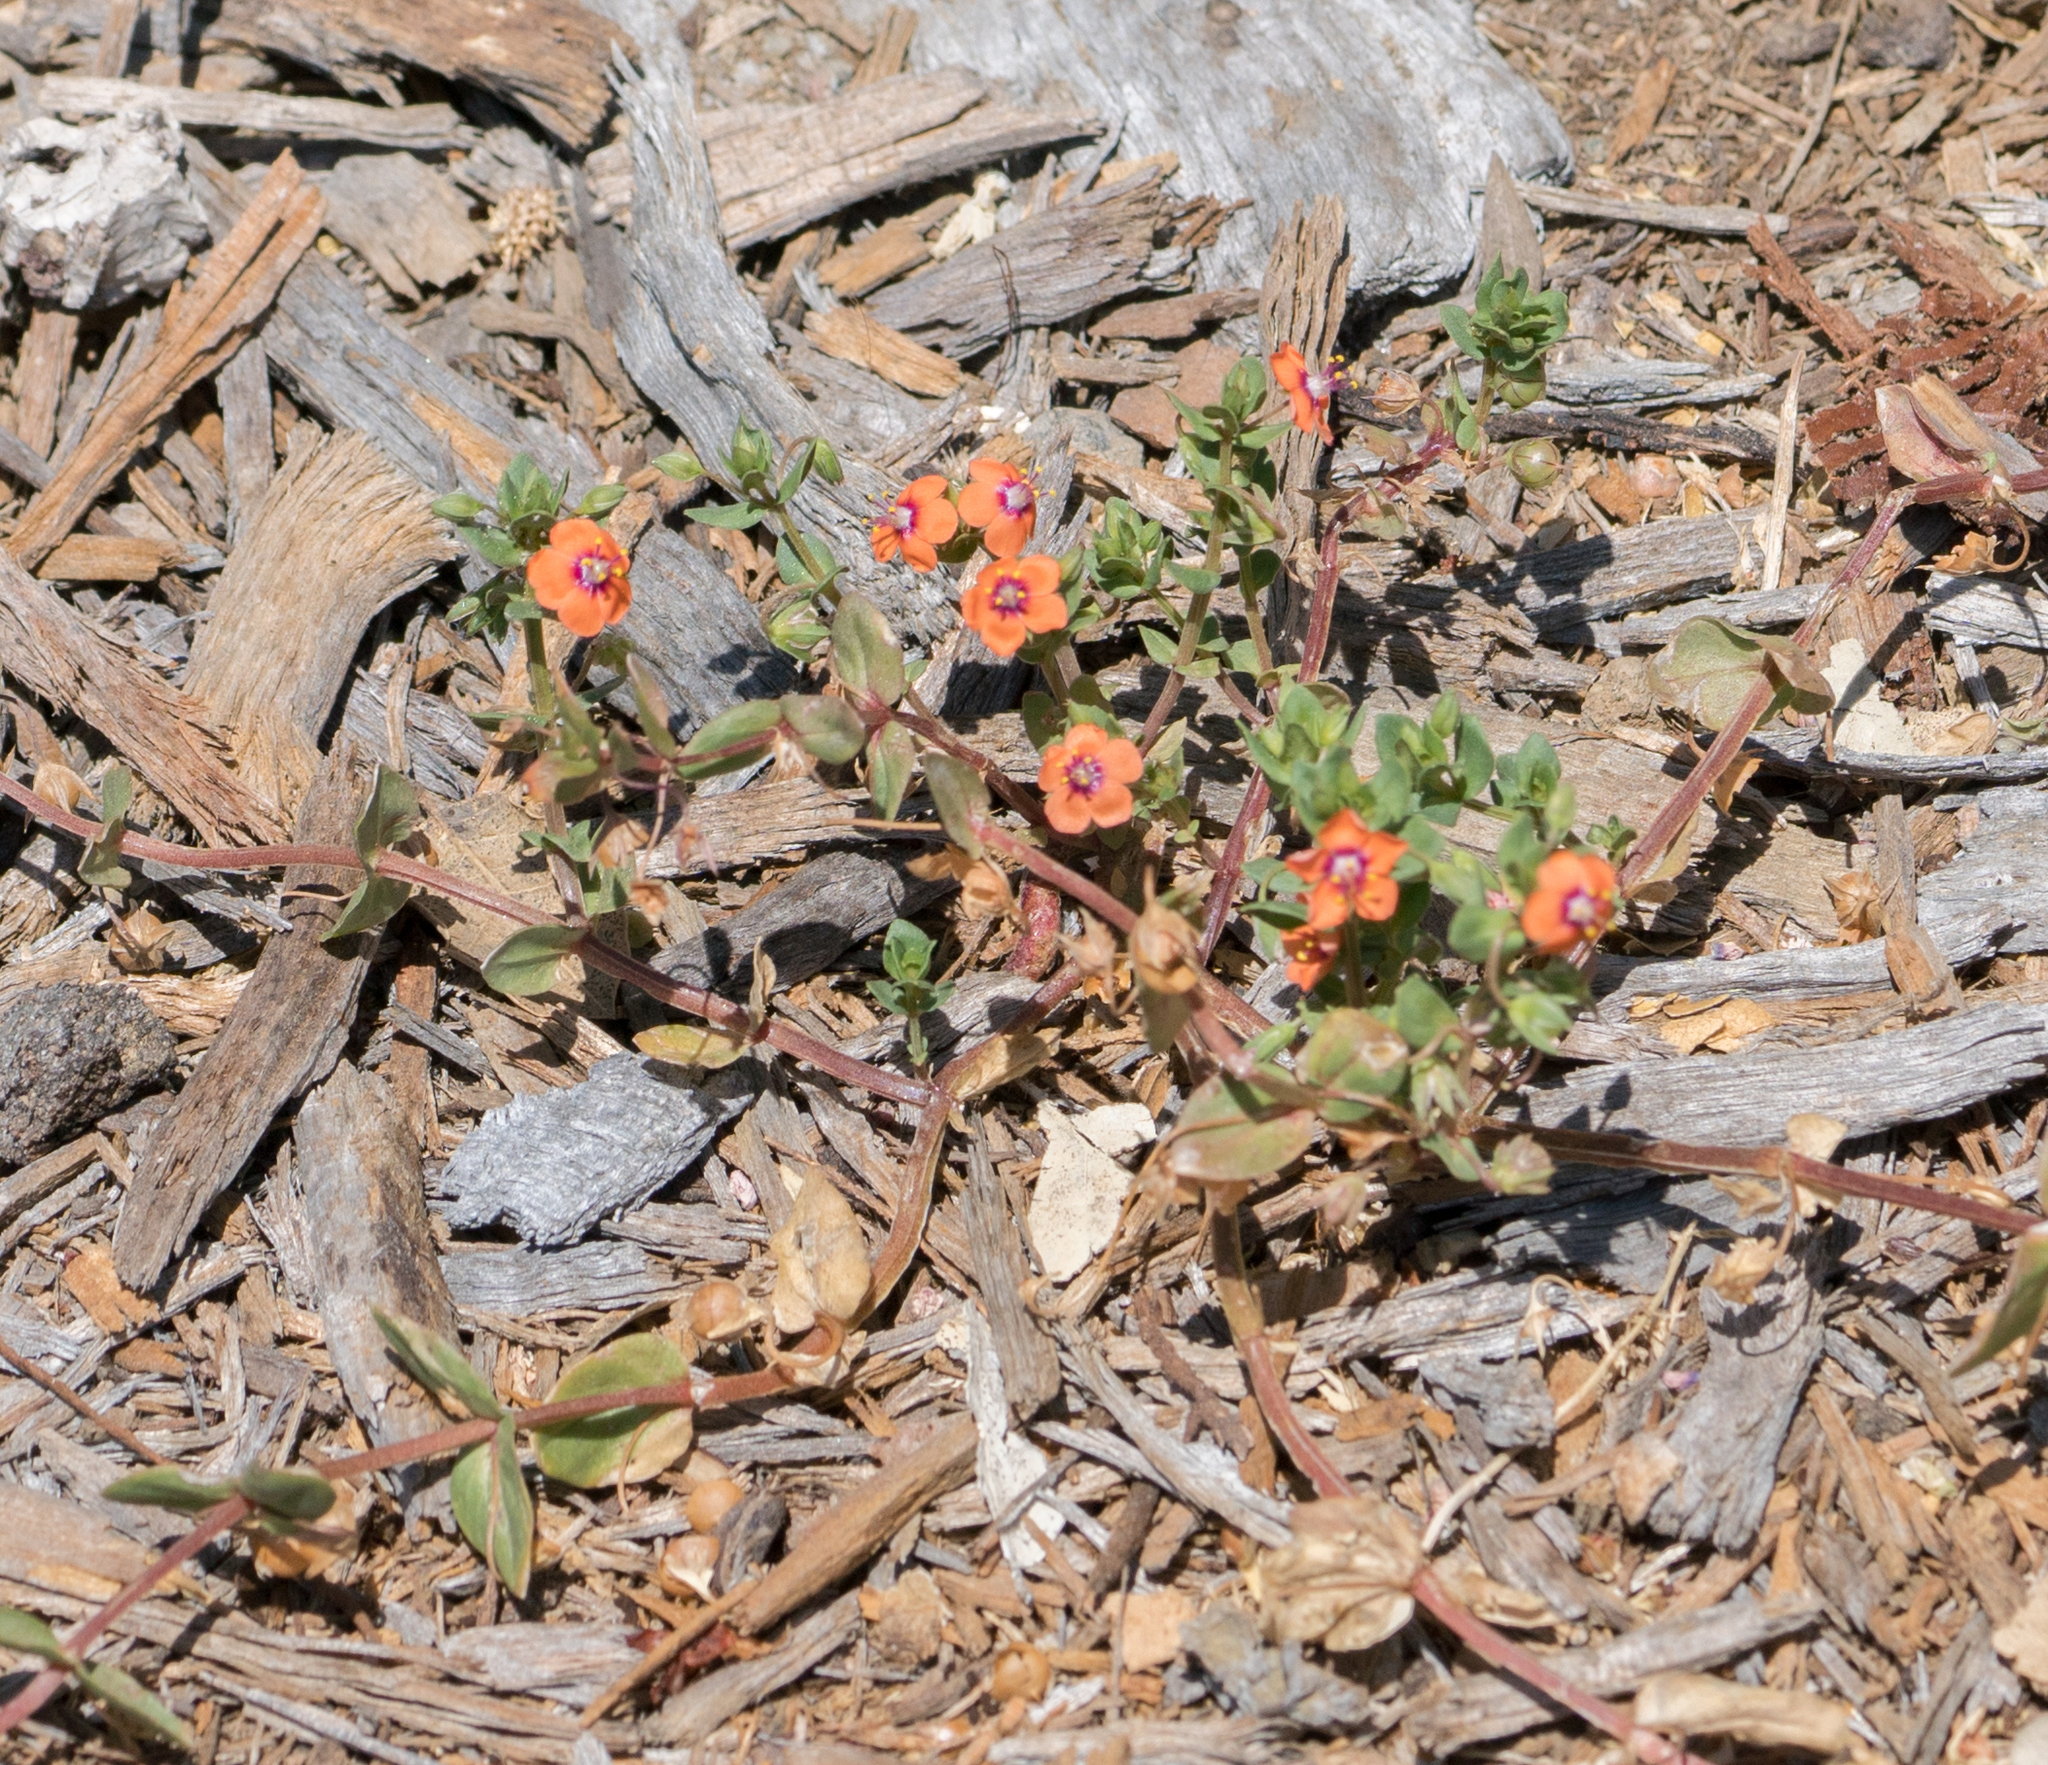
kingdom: Plantae
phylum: Tracheophyta
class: Magnoliopsida
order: Ericales
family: Primulaceae
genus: Lysimachia
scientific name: Lysimachia arvensis
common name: Scarlet pimpernel
